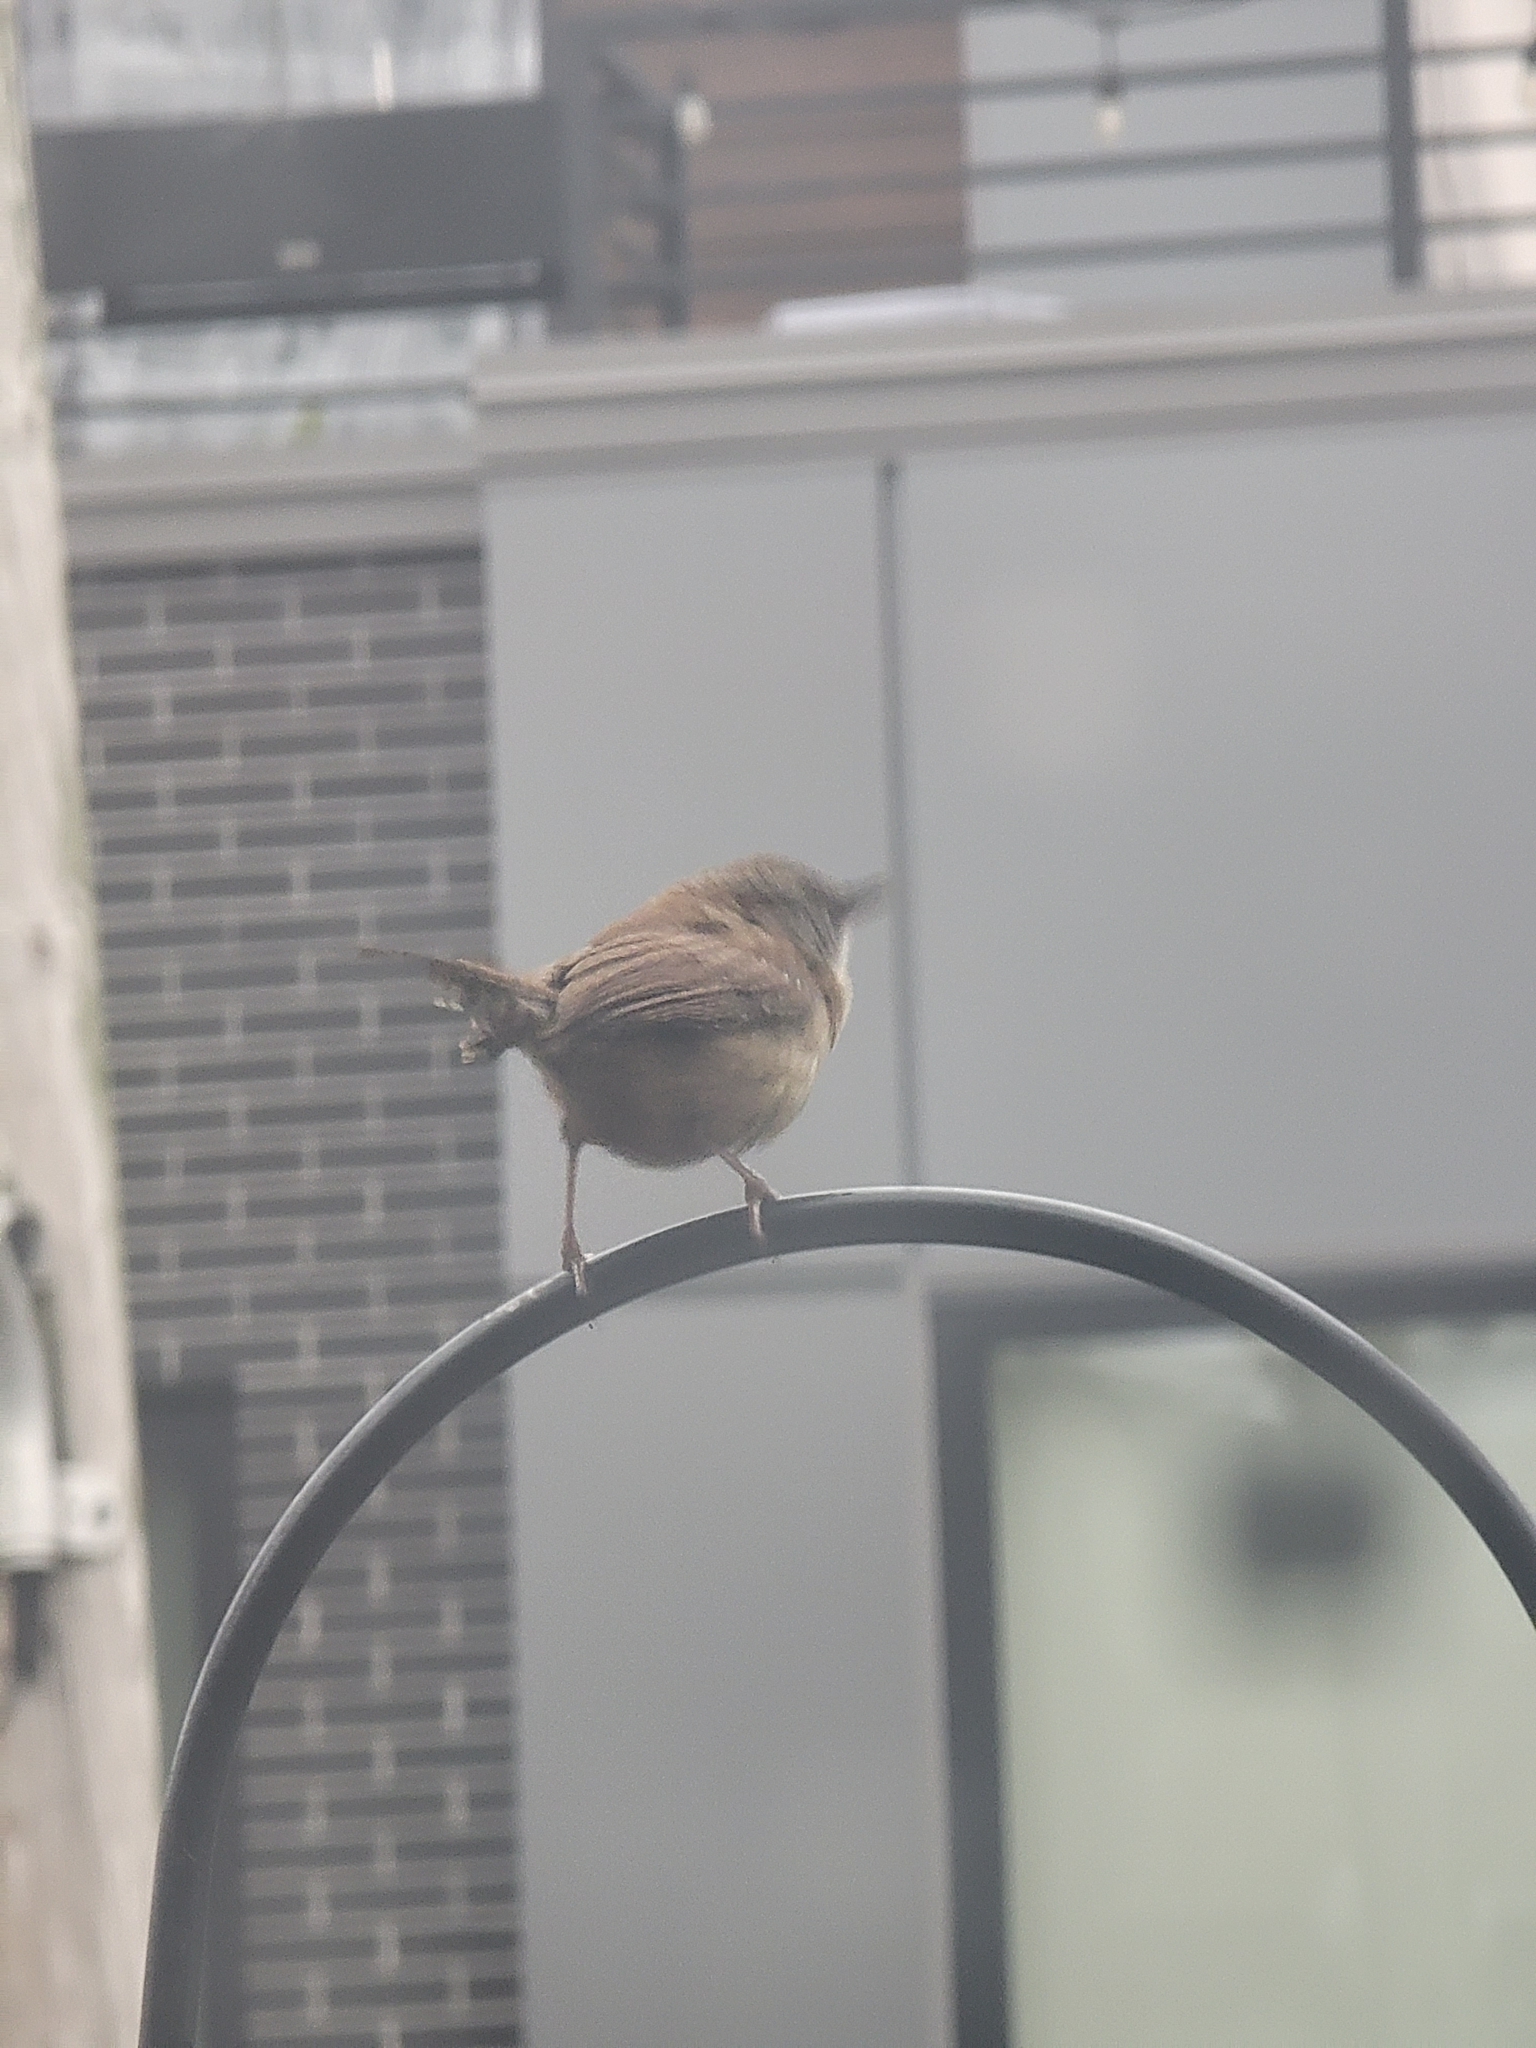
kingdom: Animalia
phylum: Chordata
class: Aves
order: Passeriformes
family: Troglodytidae
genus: Thryothorus
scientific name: Thryothorus ludovicianus
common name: Carolina wren
